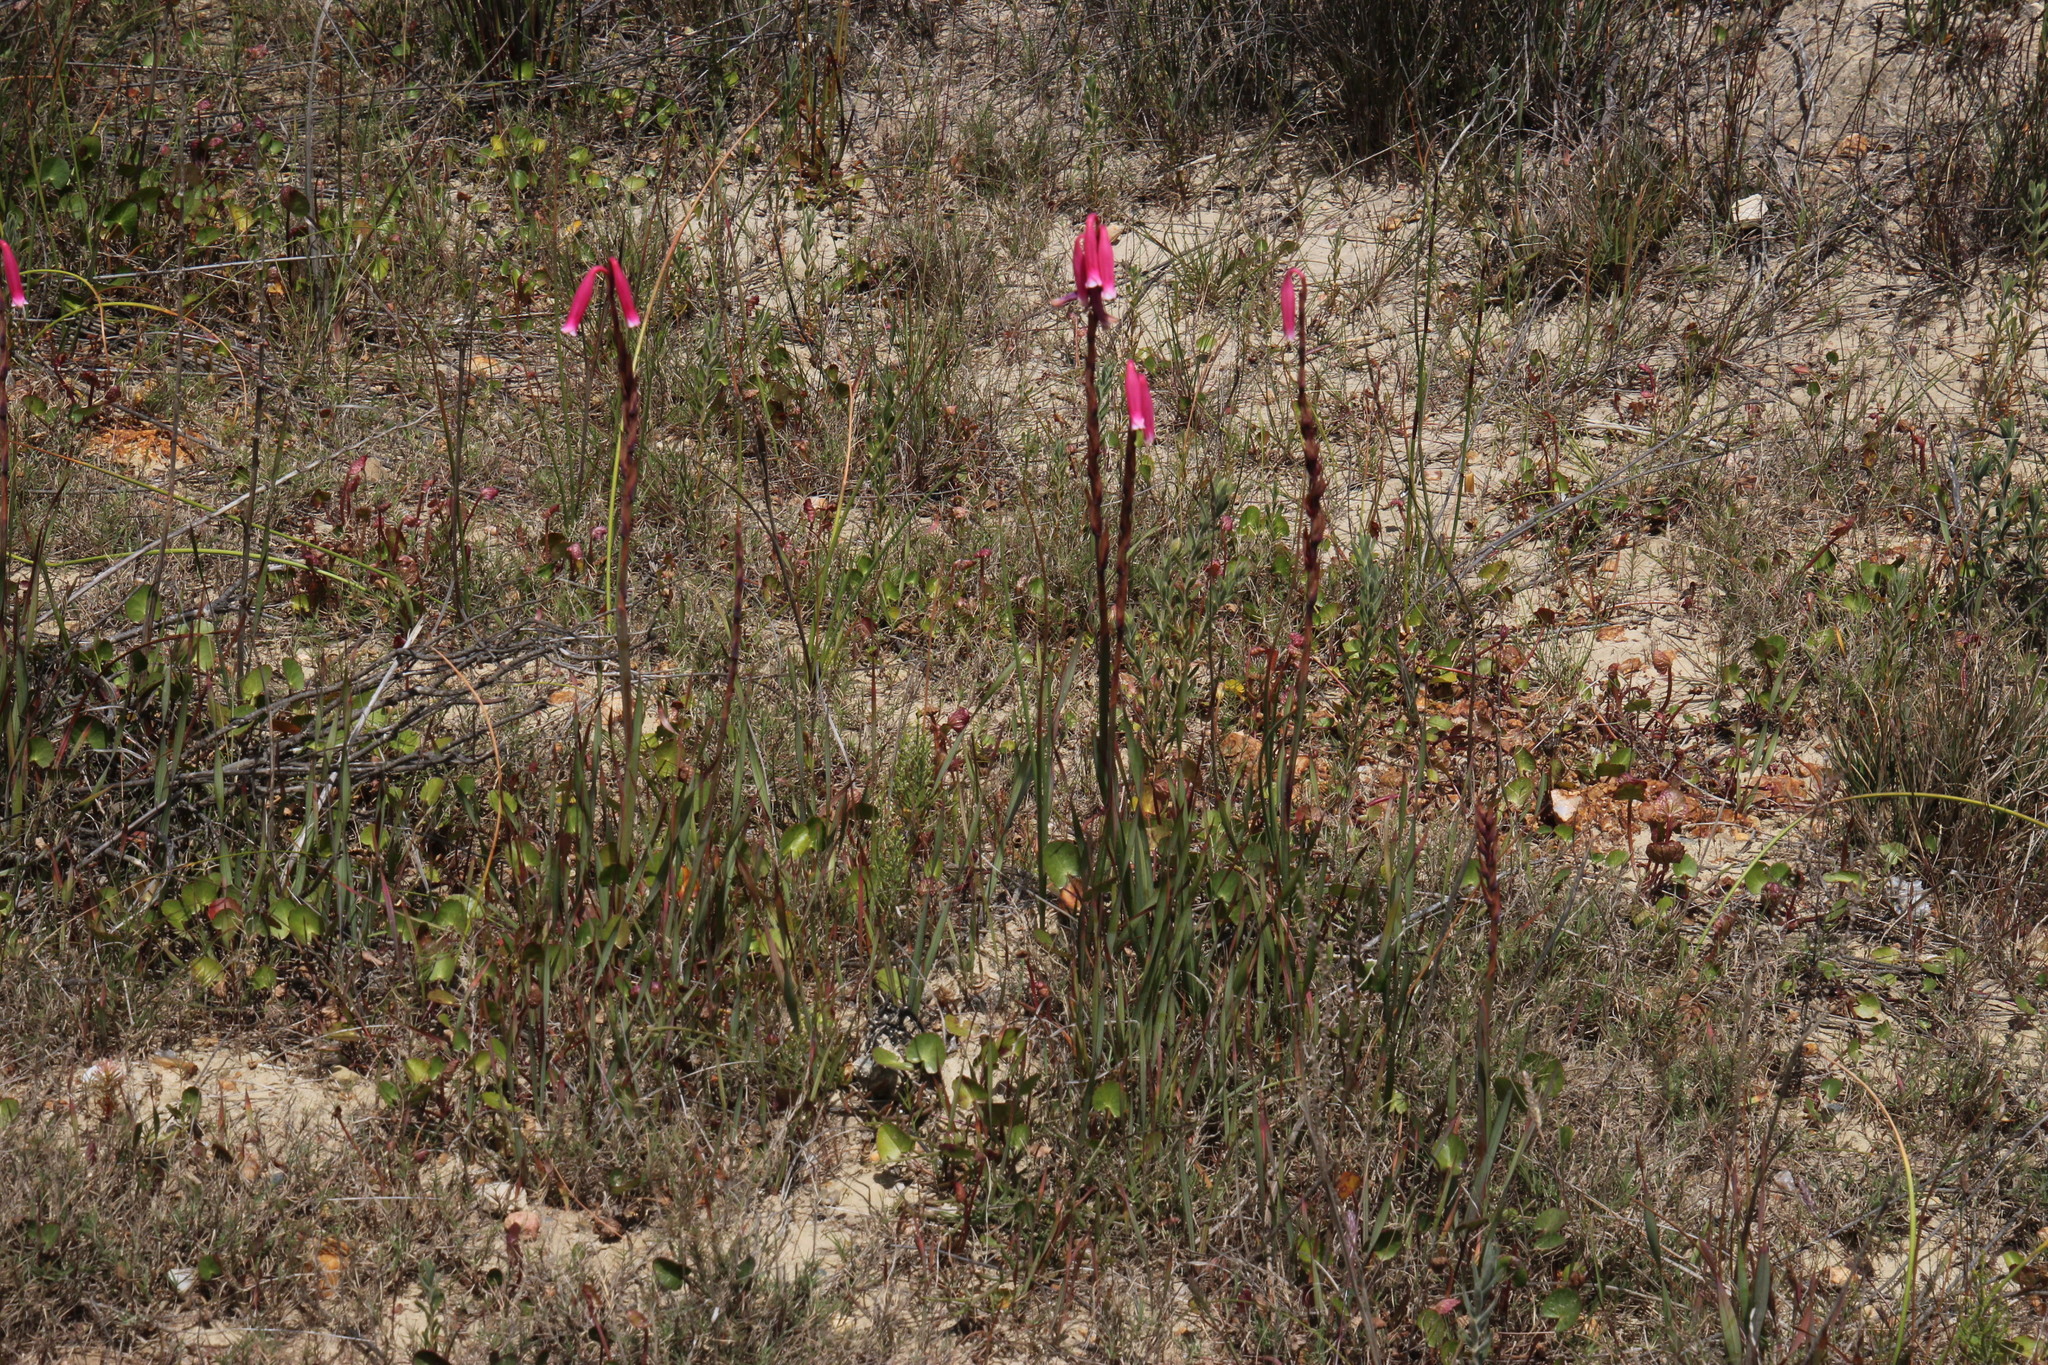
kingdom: Plantae
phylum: Tracheophyta
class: Liliopsida
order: Asparagales
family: Iridaceae
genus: Watsonia
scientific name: Watsonia aletroides
